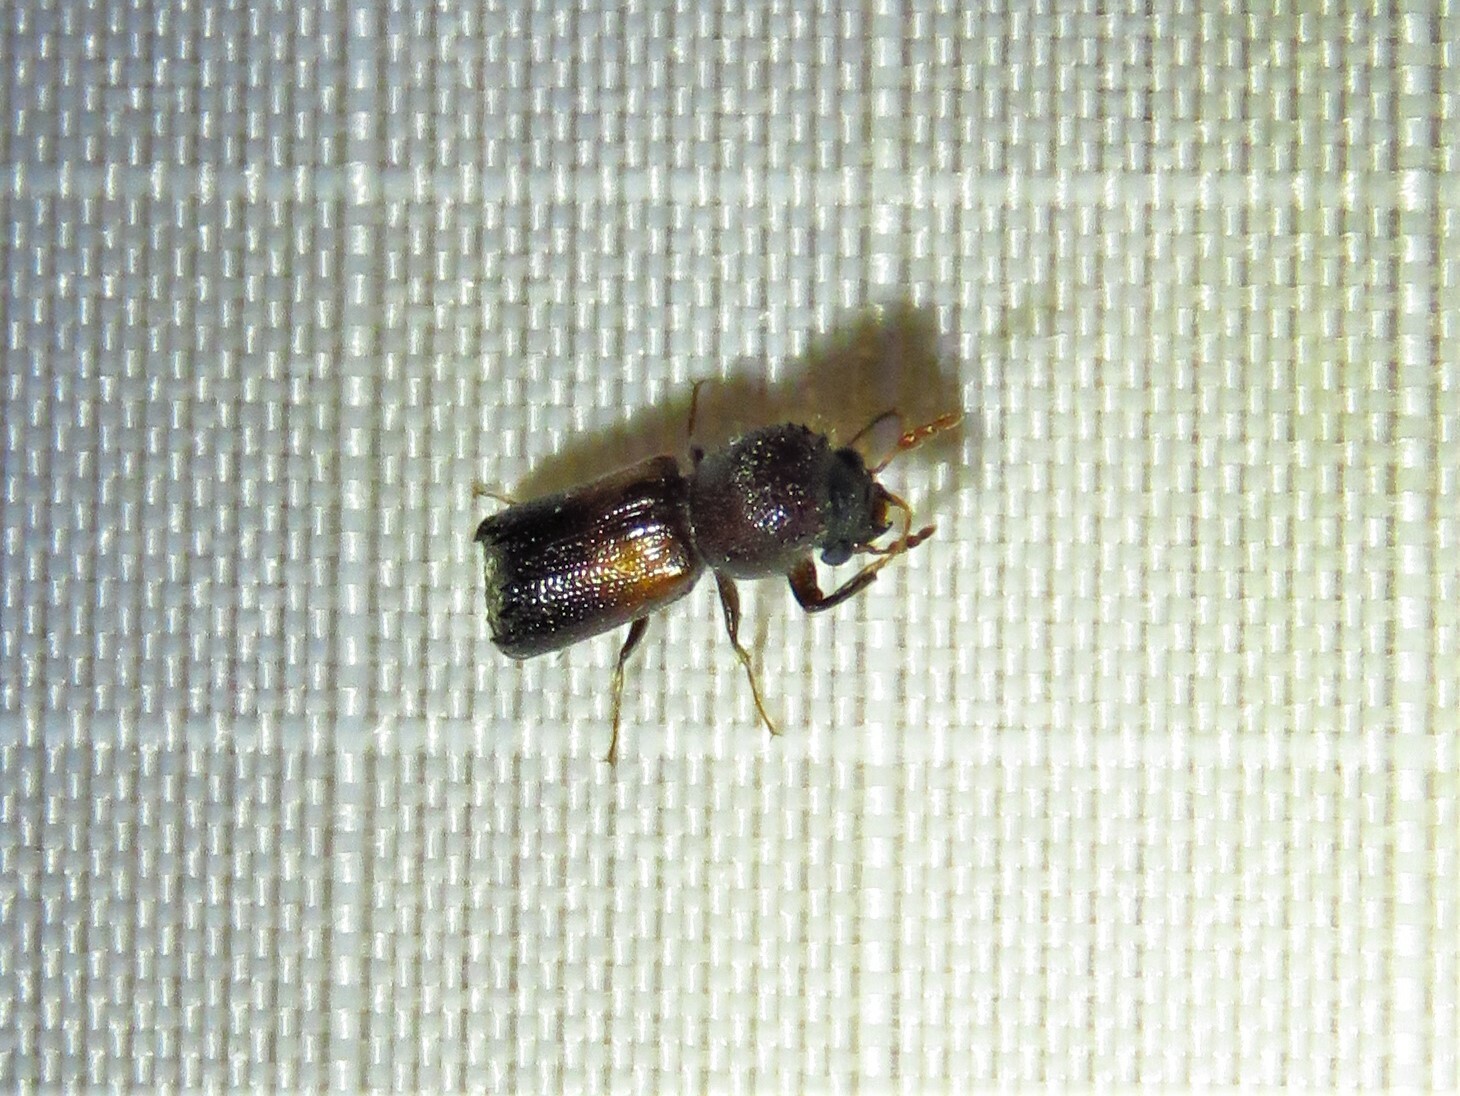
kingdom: Animalia
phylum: Arthropoda
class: Insecta
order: Coleoptera
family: Bostrichidae
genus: Xylobiops
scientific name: Xylobiops basilaris
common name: Red-shouldered bostrichid
